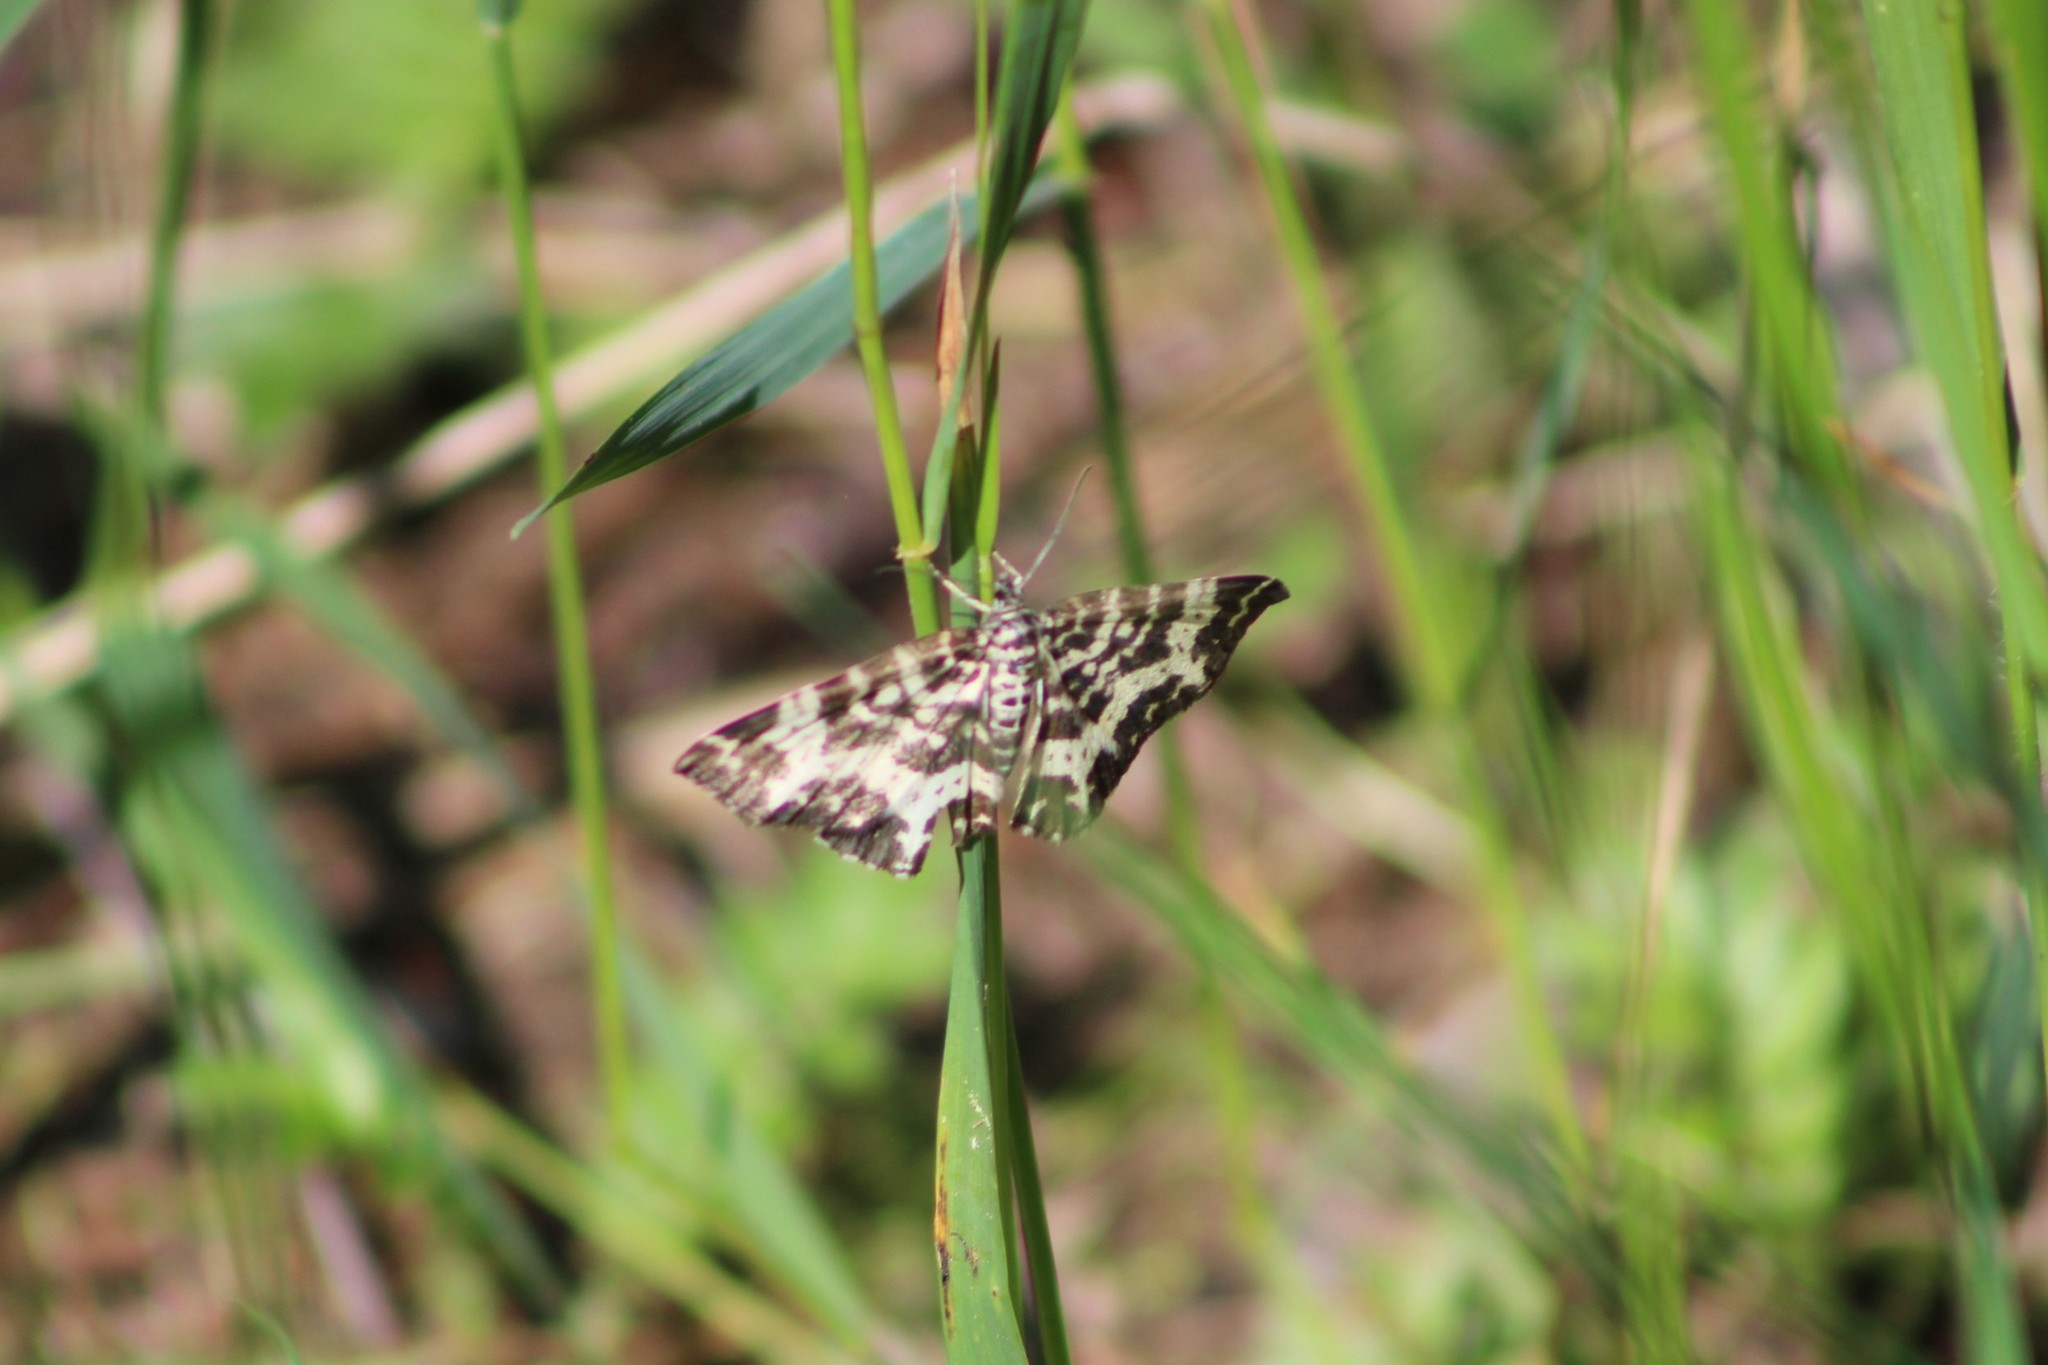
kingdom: Animalia
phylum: Arthropoda
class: Insecta
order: Lepidoptera
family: Geometridae
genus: Rheumaptera
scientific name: Rheumaptera hastata
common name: Argent & sable
